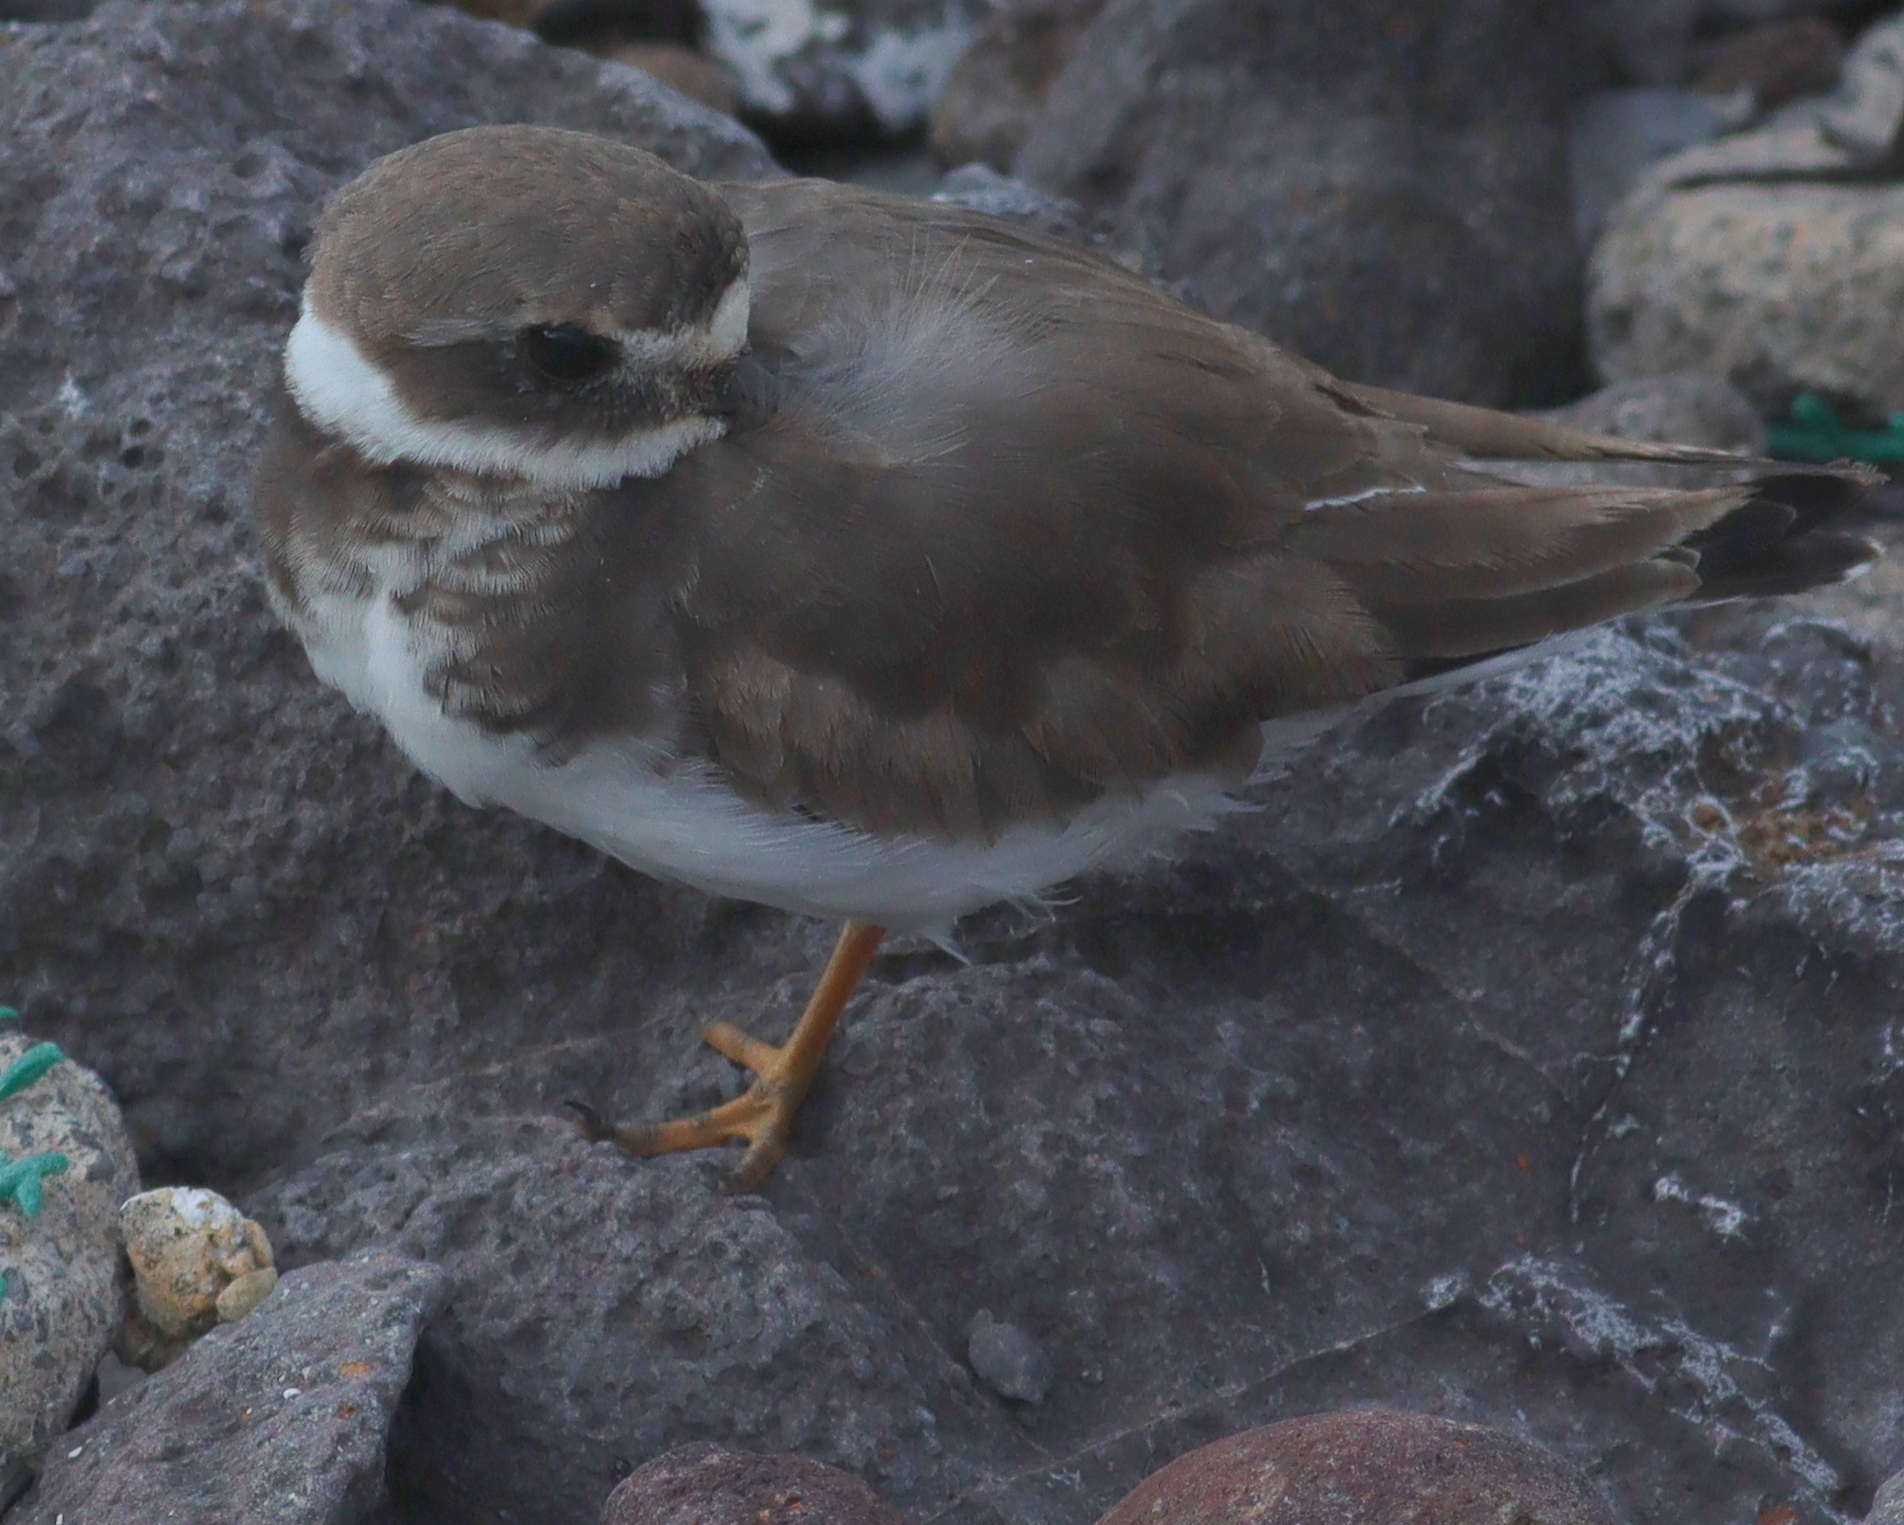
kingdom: Animalia
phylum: Chordata
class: Aves
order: Charadriiformes
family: Charadriidae
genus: Charadrius
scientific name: Charadrius hiaticula
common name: Common ringed plover
